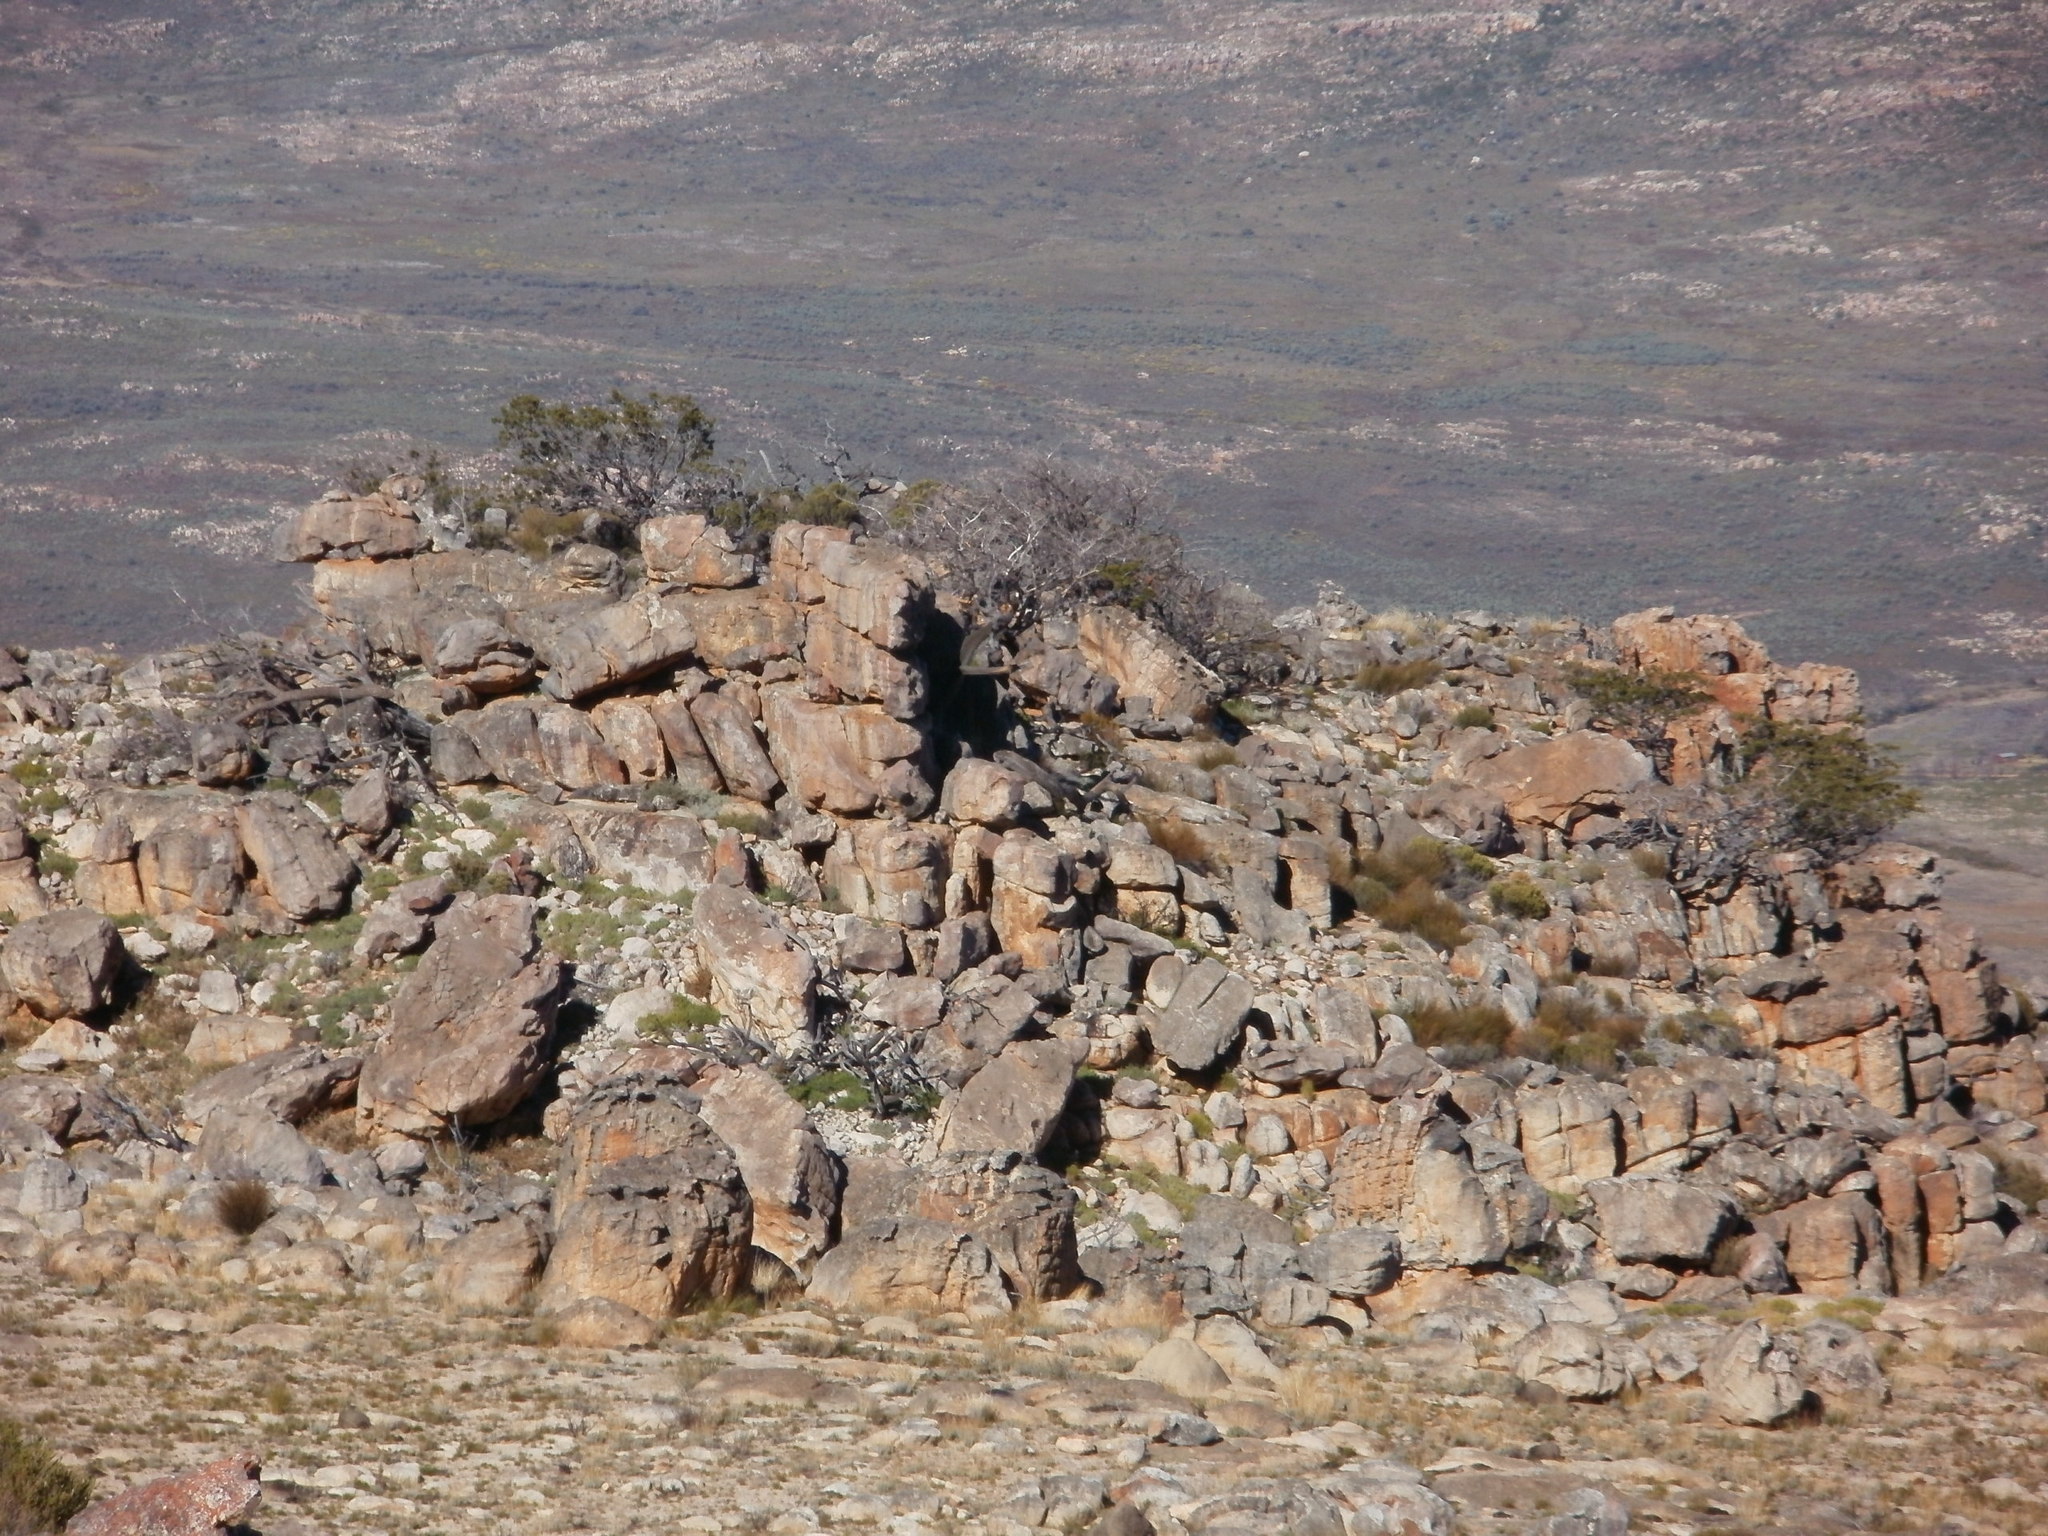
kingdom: Plantae
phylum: Tracheophyta
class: Pinopsida
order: Pinales
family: Cupressaceae
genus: Widdringtonia
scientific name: Widdringtonia nodiflora
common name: Cape cypress
